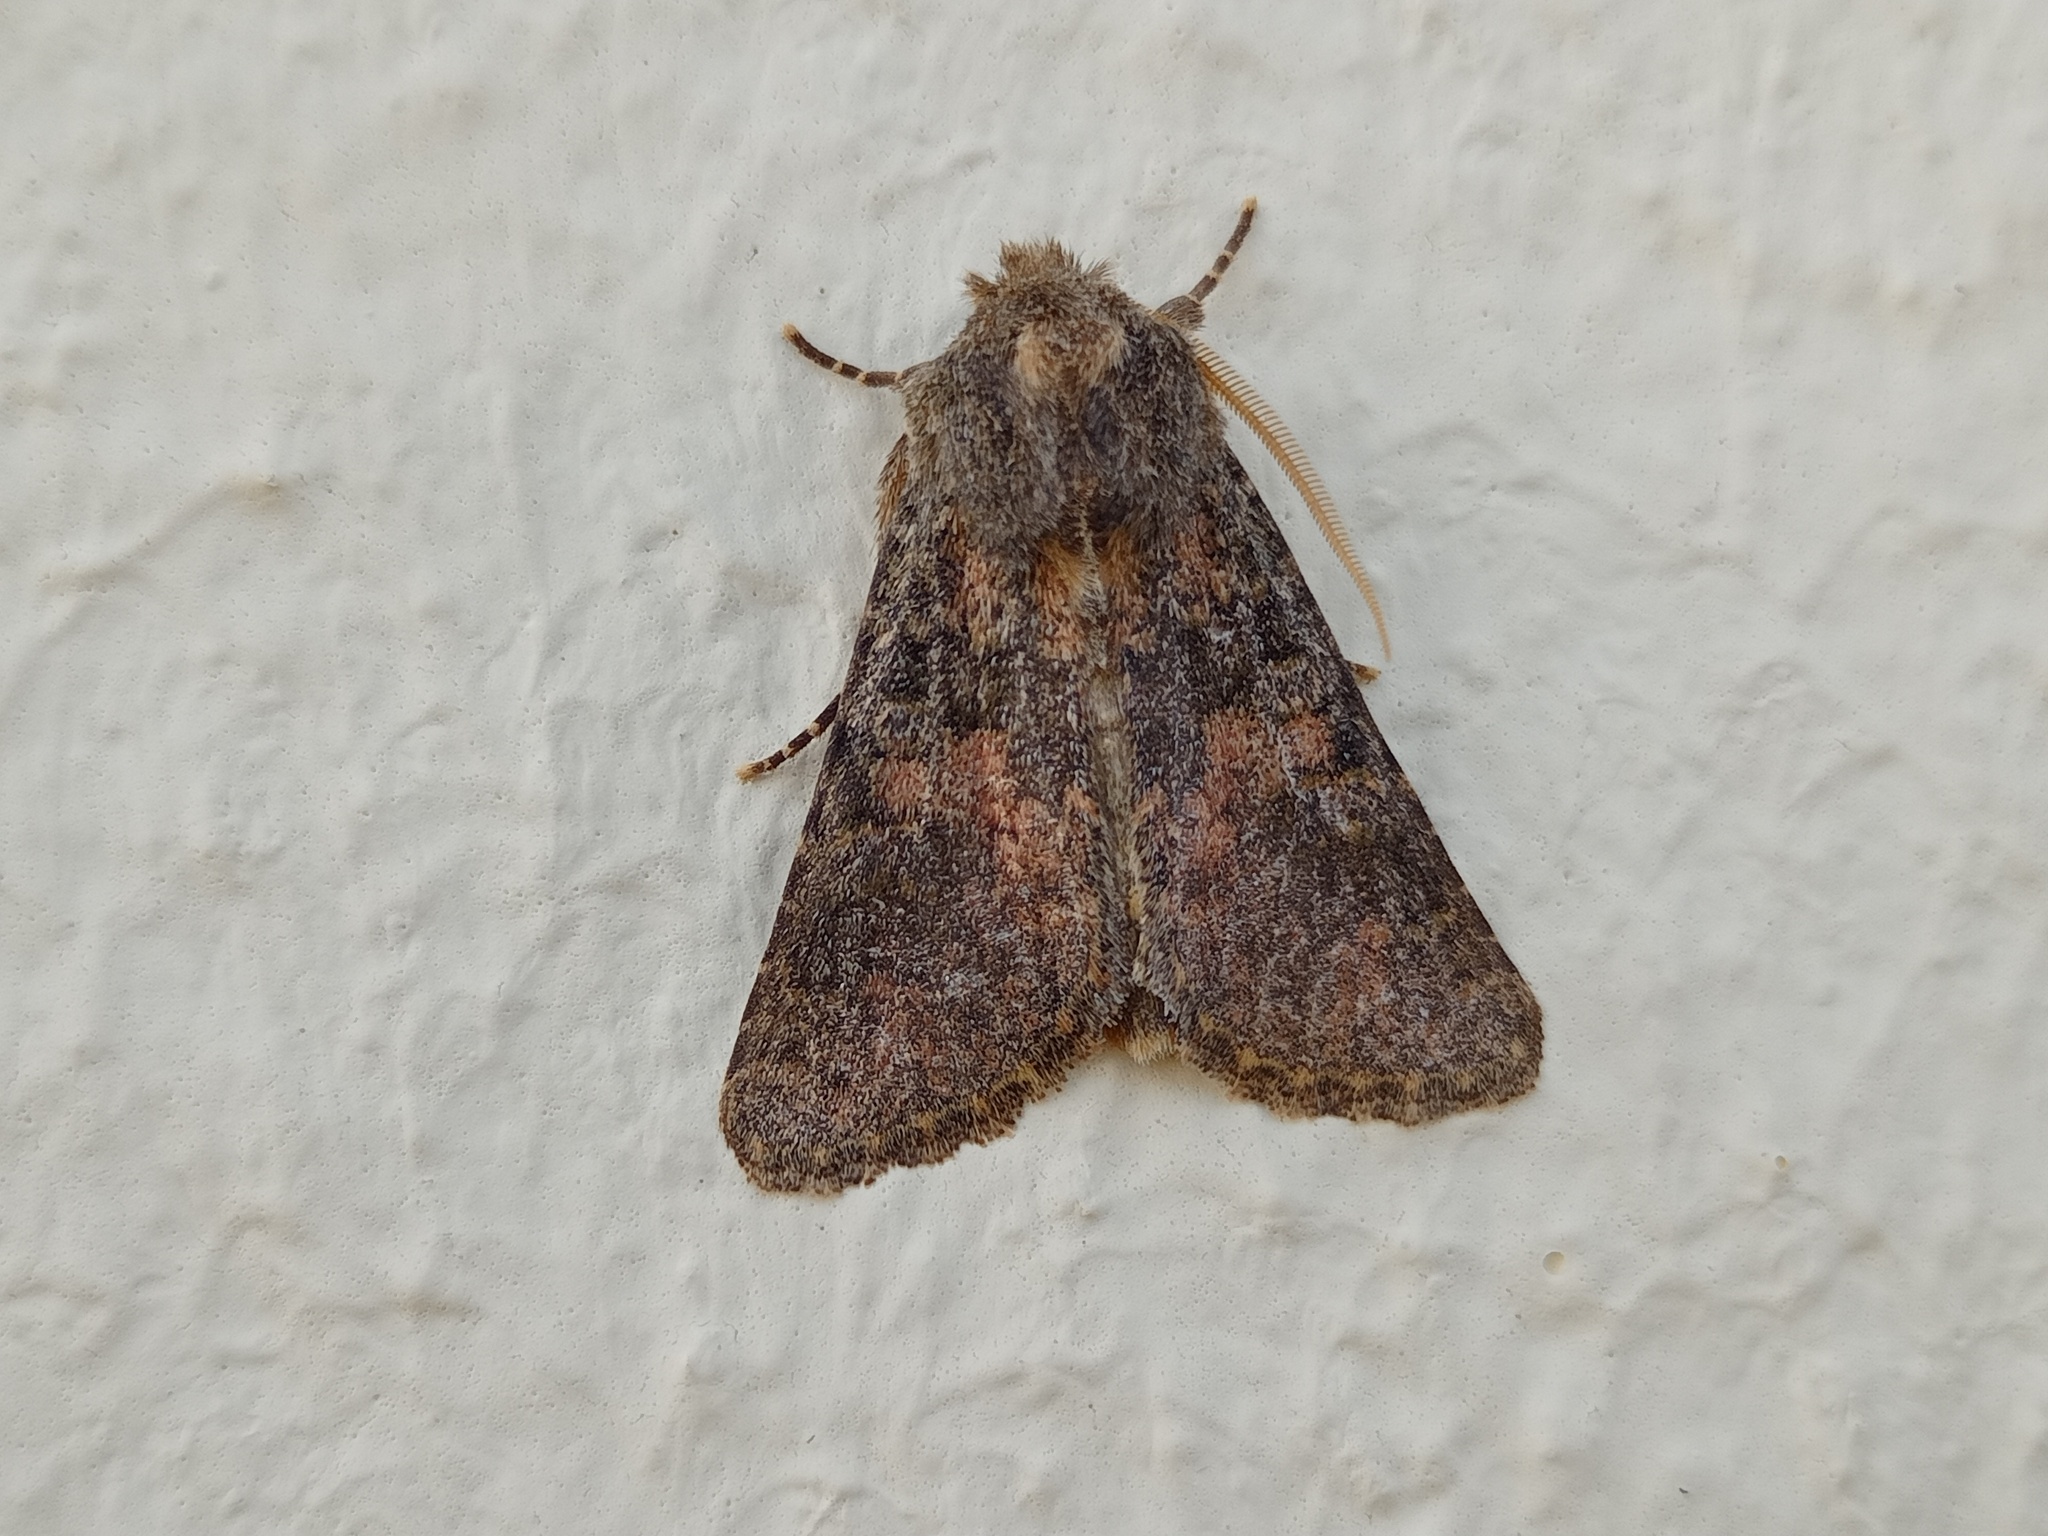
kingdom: Animalia
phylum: Arthropoda
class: Insecta
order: Lepidoptera
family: Noctuidae
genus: Polymixis
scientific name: Polymixis bacheri
